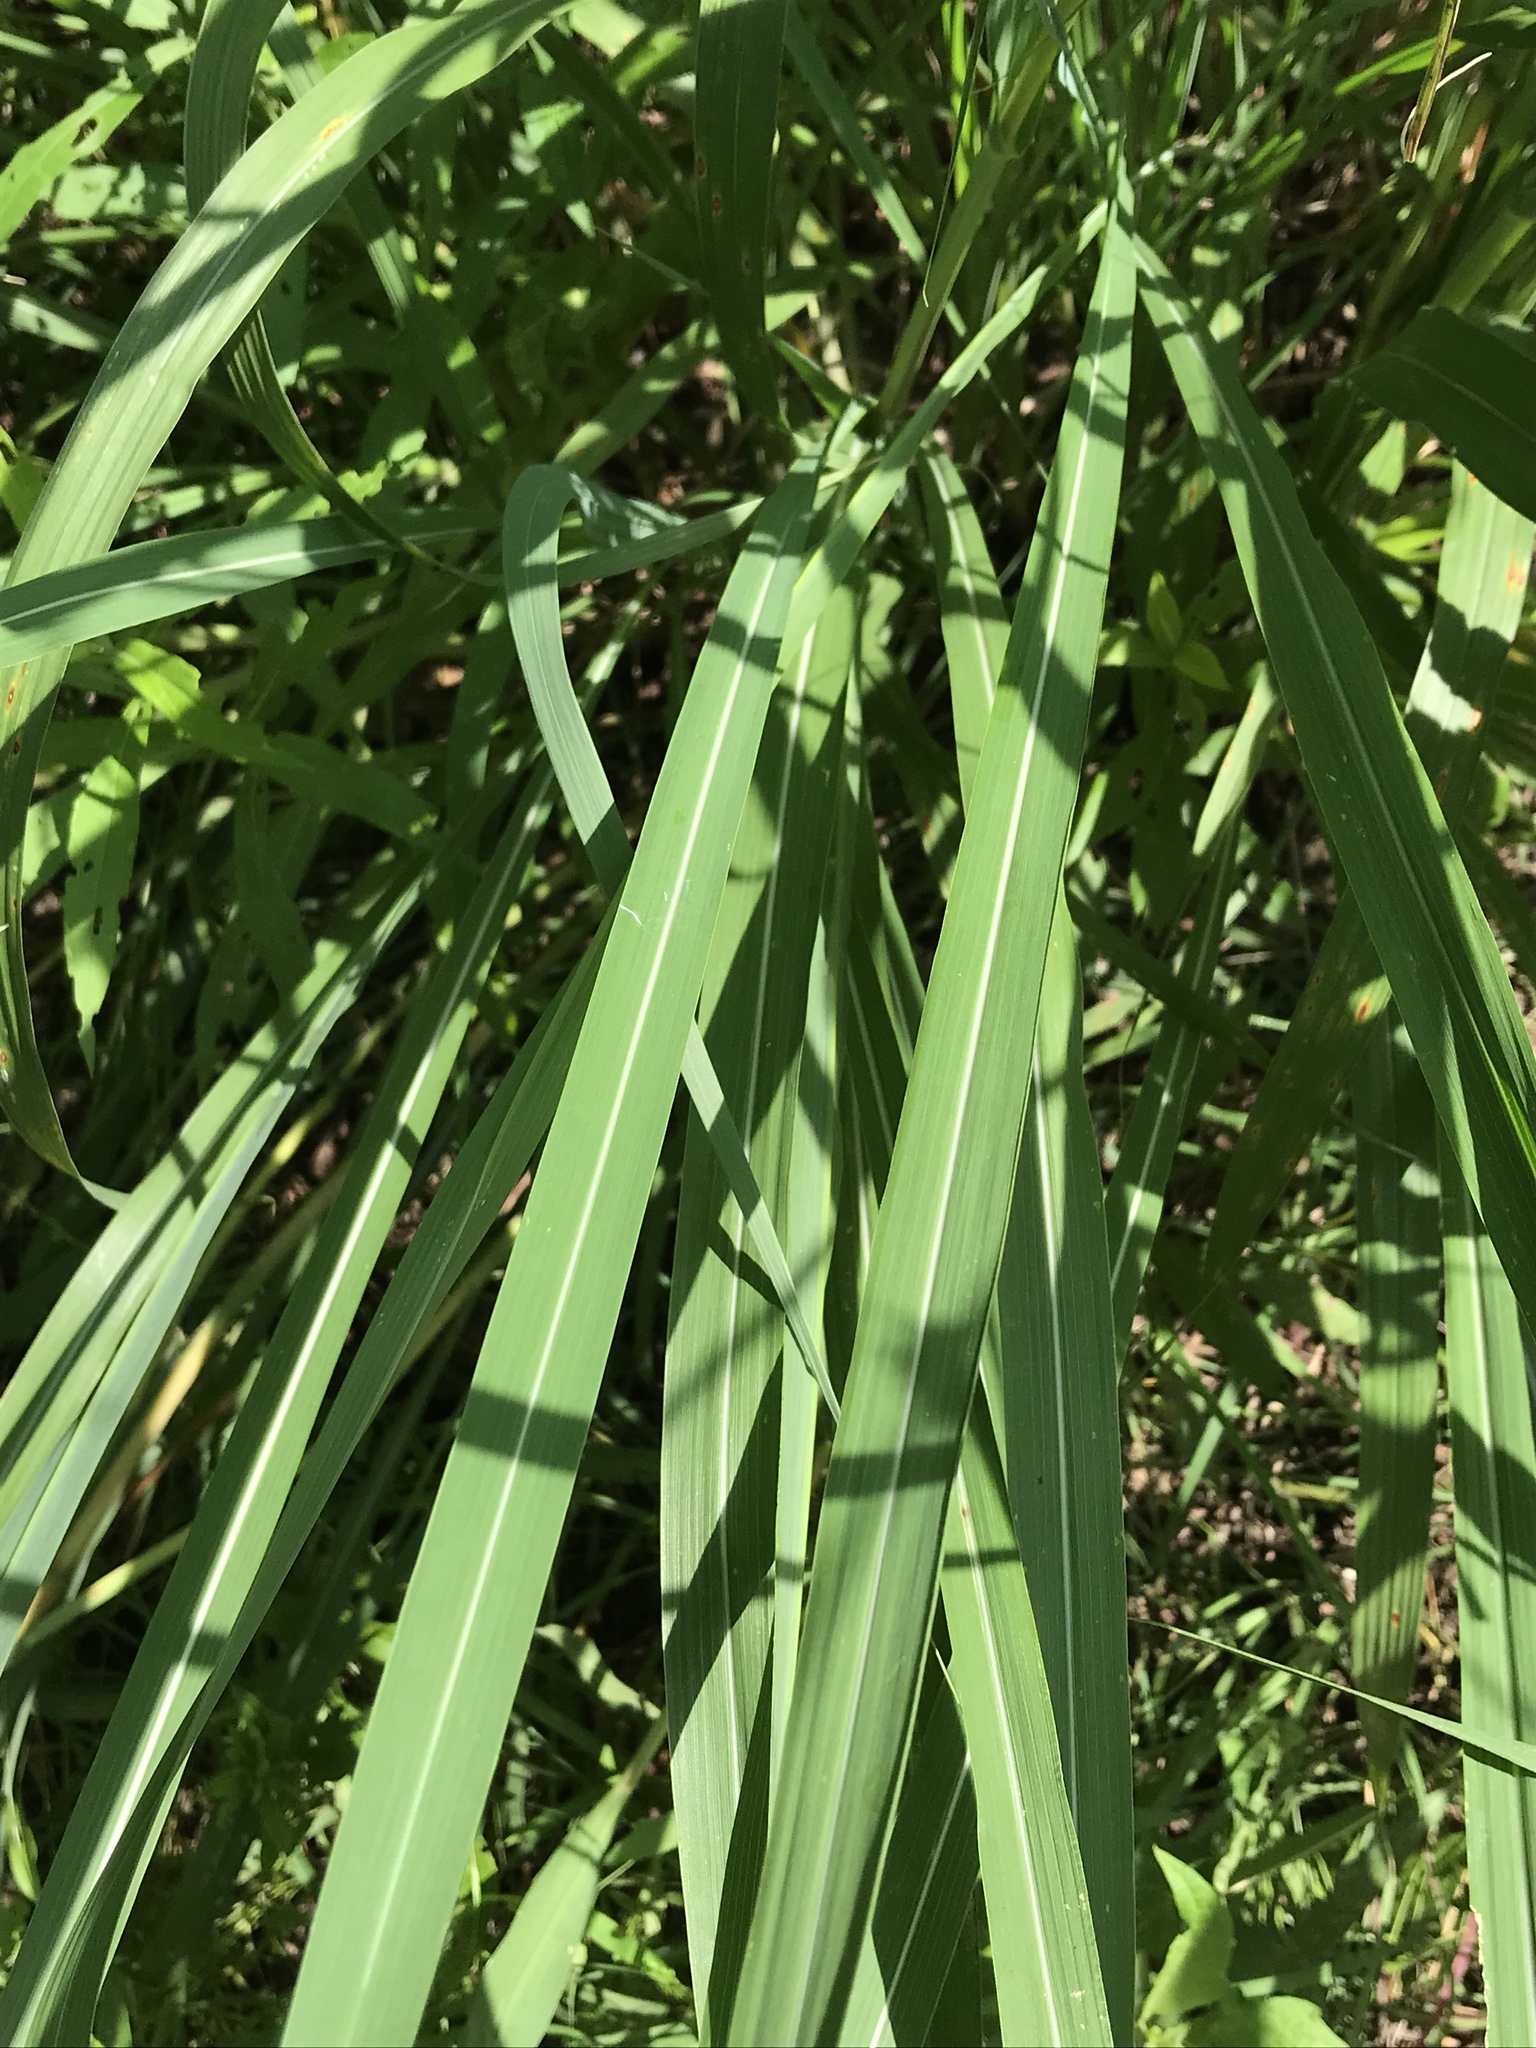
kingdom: Plantae
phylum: Tracheophyta
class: Liliopsida
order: Poales
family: Poaceae
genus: Tripsacum
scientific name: Tripsacum dactyloides
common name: Buffalo-grass
